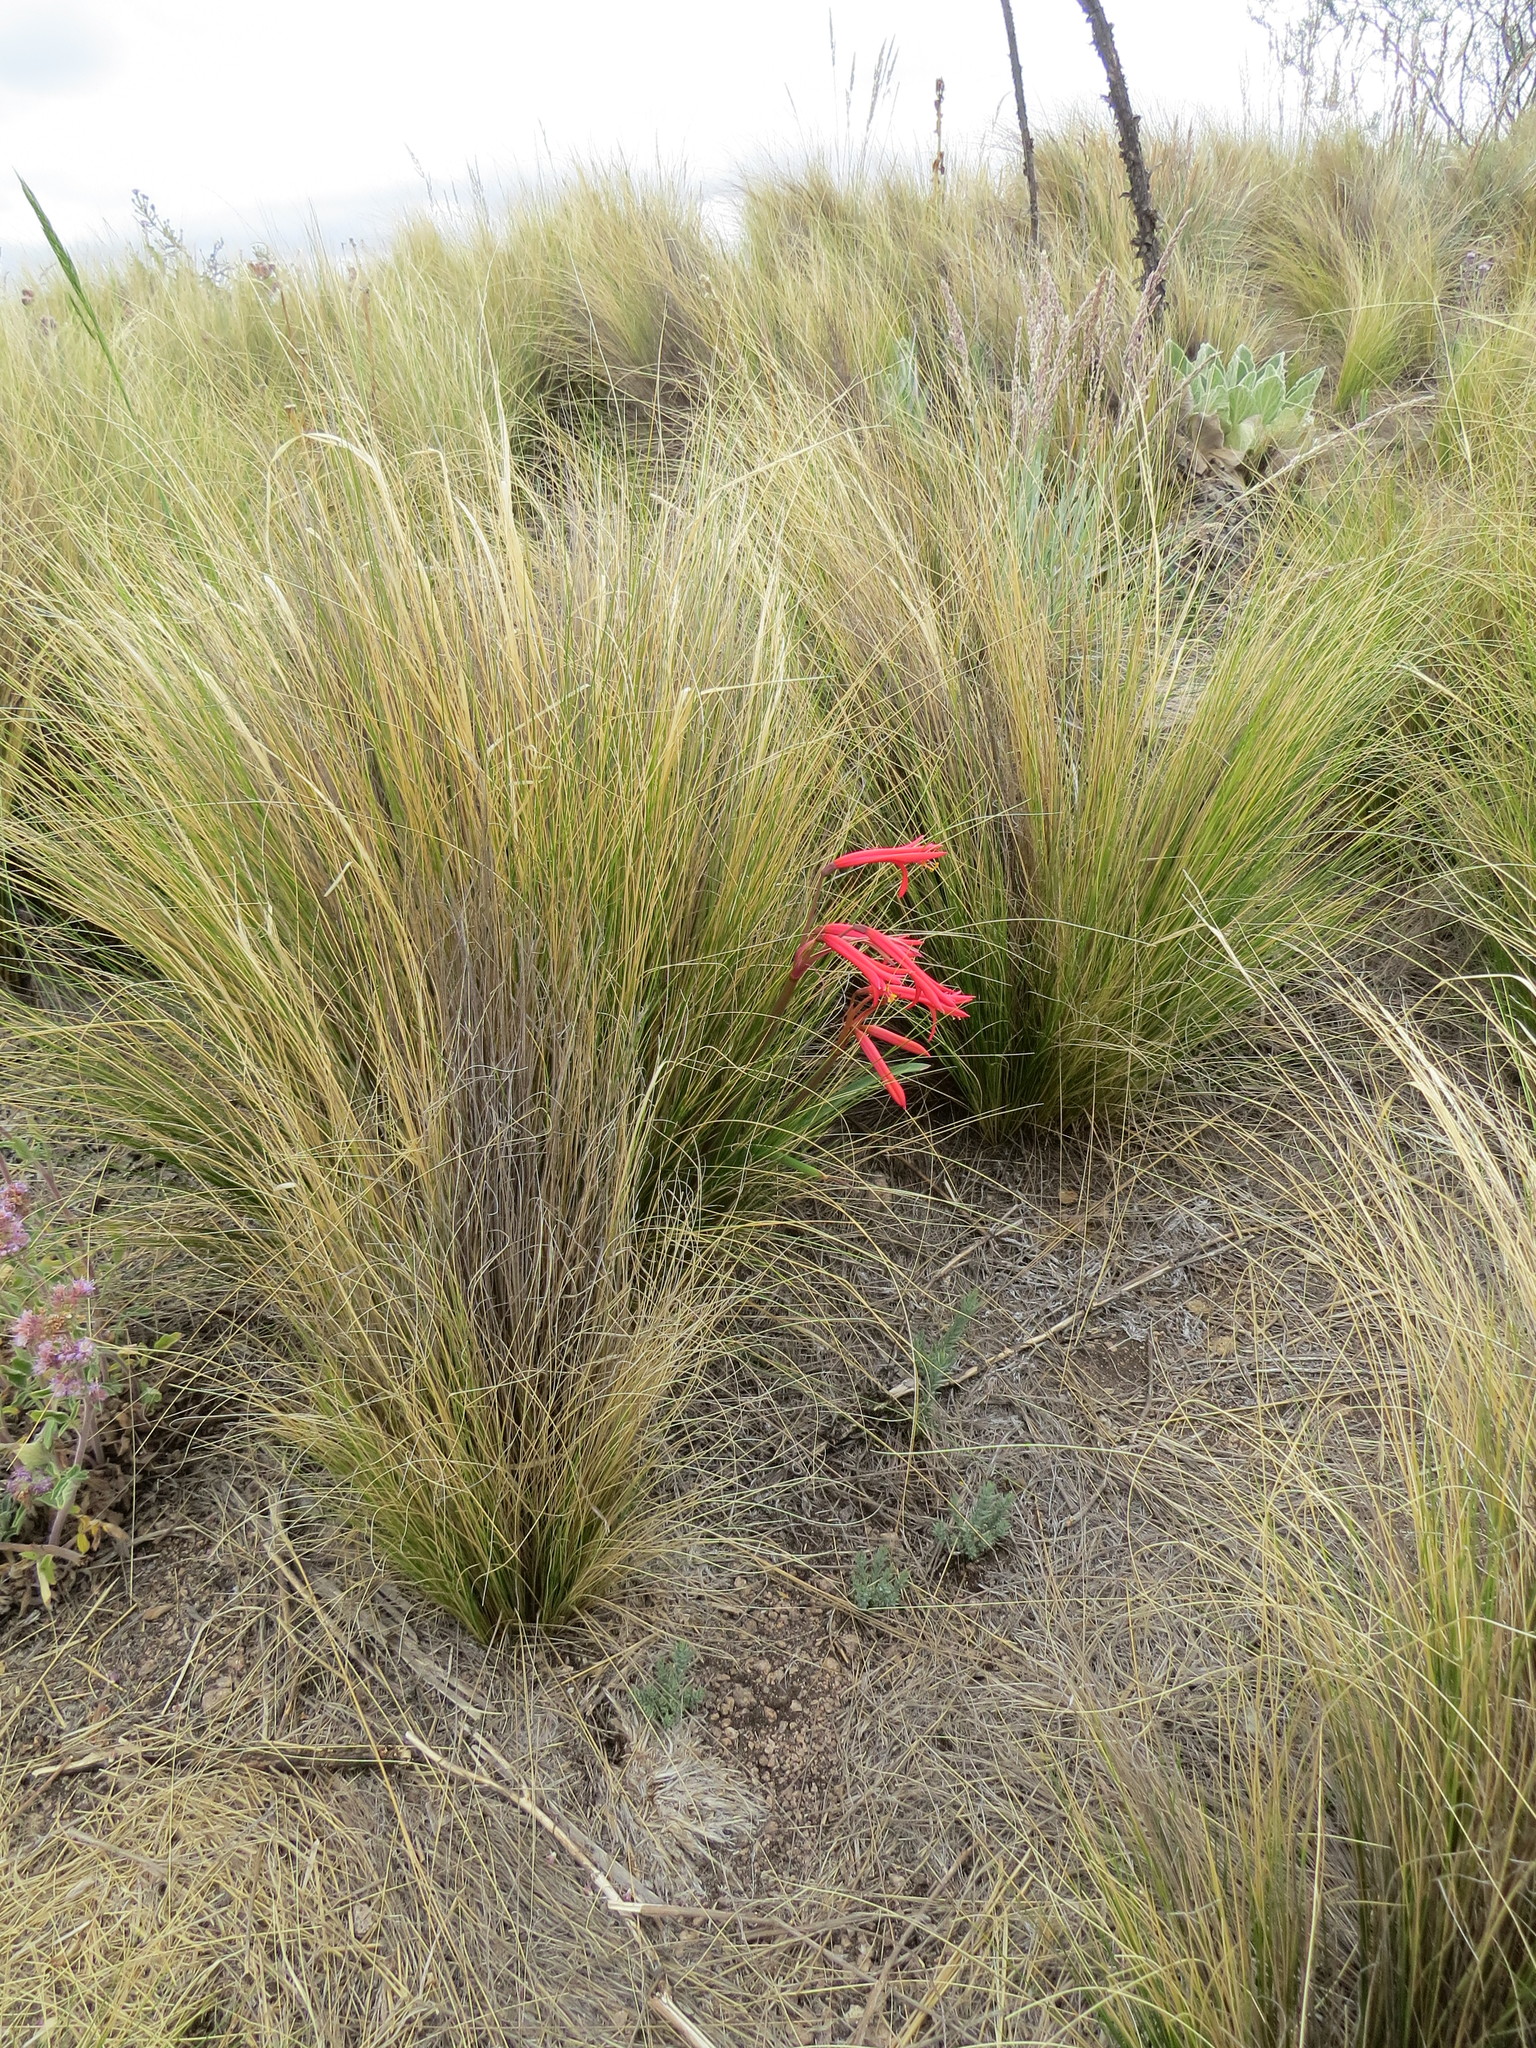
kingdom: Plantae
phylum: Tracheophyta
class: Liliopsida
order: Asparagales
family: Amaryllidaceae
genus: Zephyranthes
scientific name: Zephyranthes graciliflora
